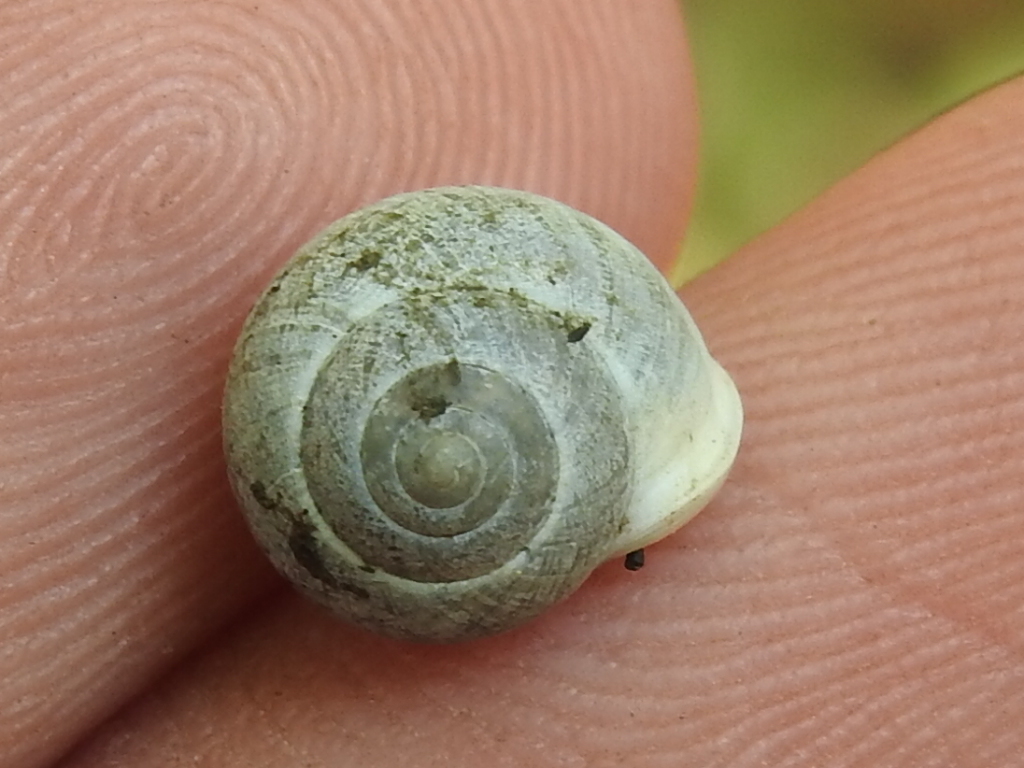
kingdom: Animalia
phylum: Mollusca
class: Gastropoda
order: Cycloneritida
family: Helicinidae
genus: Helicina
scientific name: Helicina orbiculata
